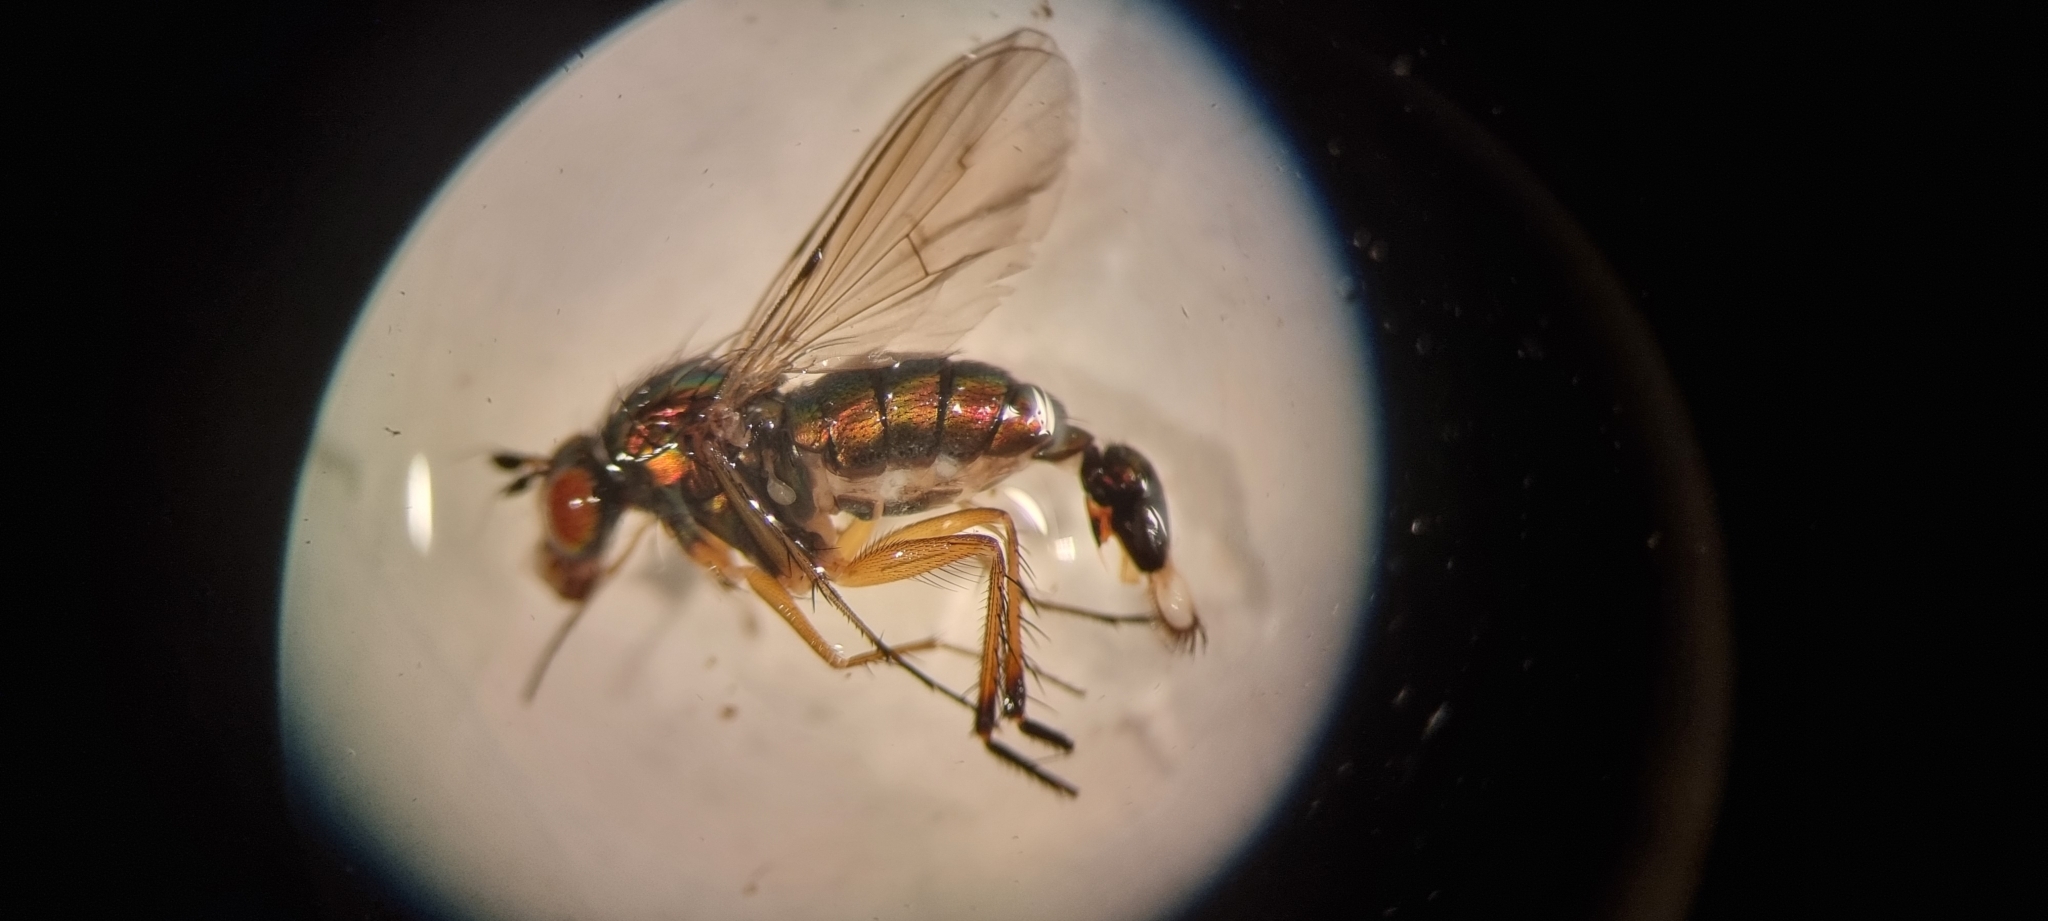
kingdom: Animalia
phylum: Arthropoda
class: Insecta
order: Diptera
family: Dolichopodidae
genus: Dolichopus
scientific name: Dolichopus griseipennis
